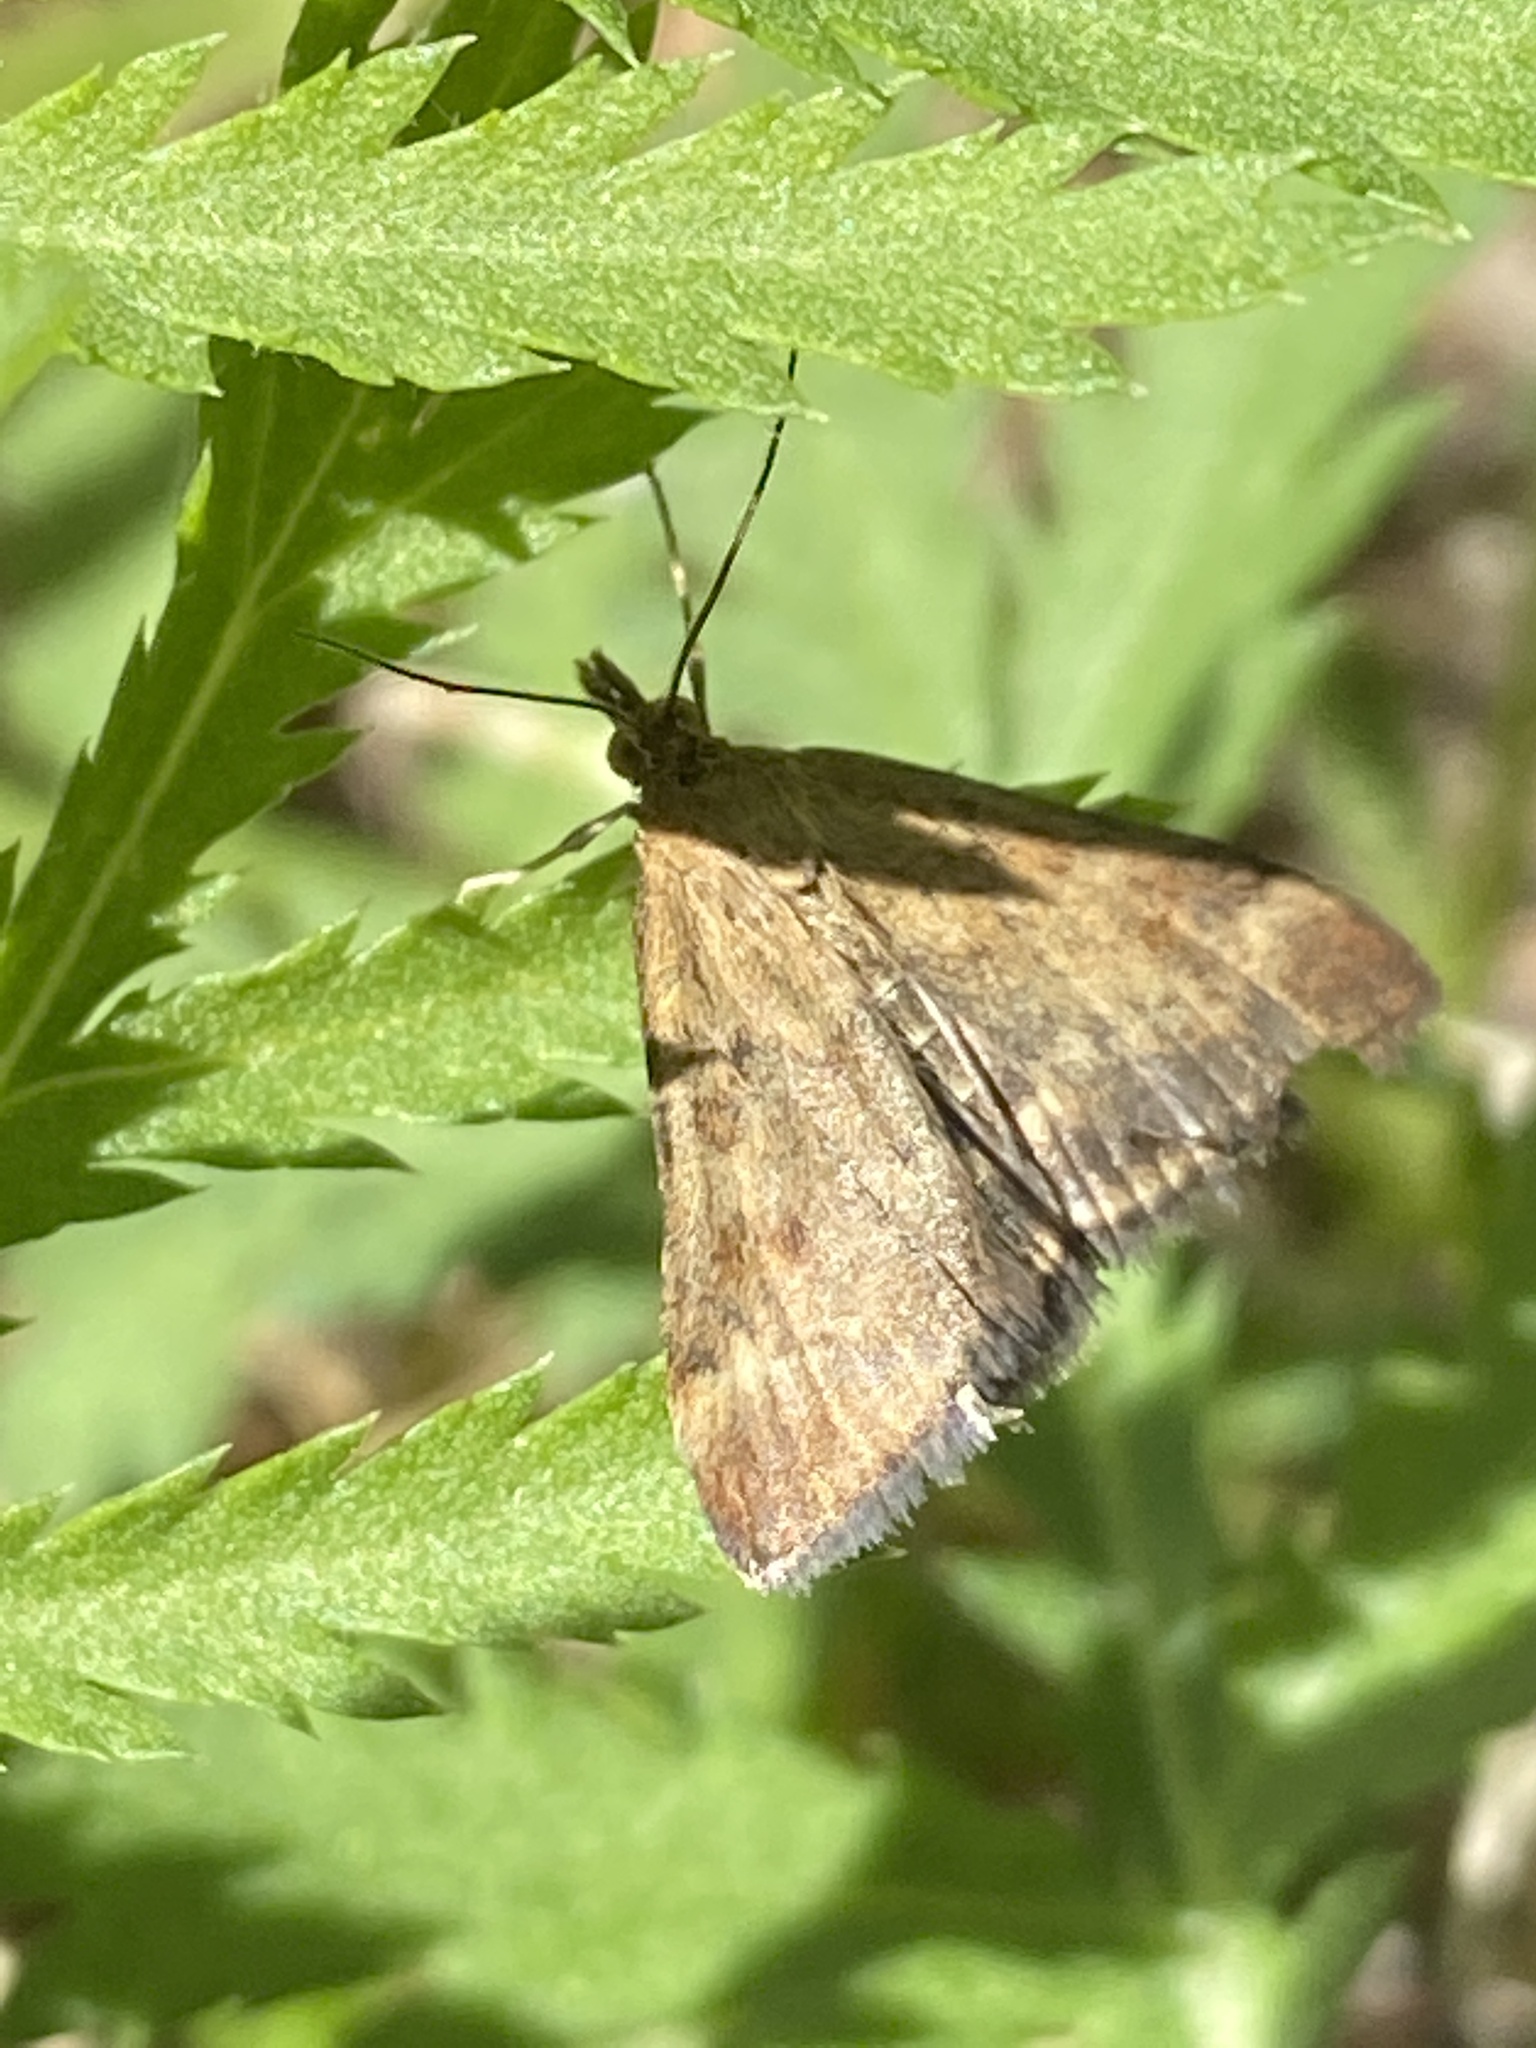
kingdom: Animalia
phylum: Arthropoda
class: Insecta
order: Lepidoptera
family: Crambidae
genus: Pyrausta
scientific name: Pyrausta despicata
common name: Straw-barred pearl
